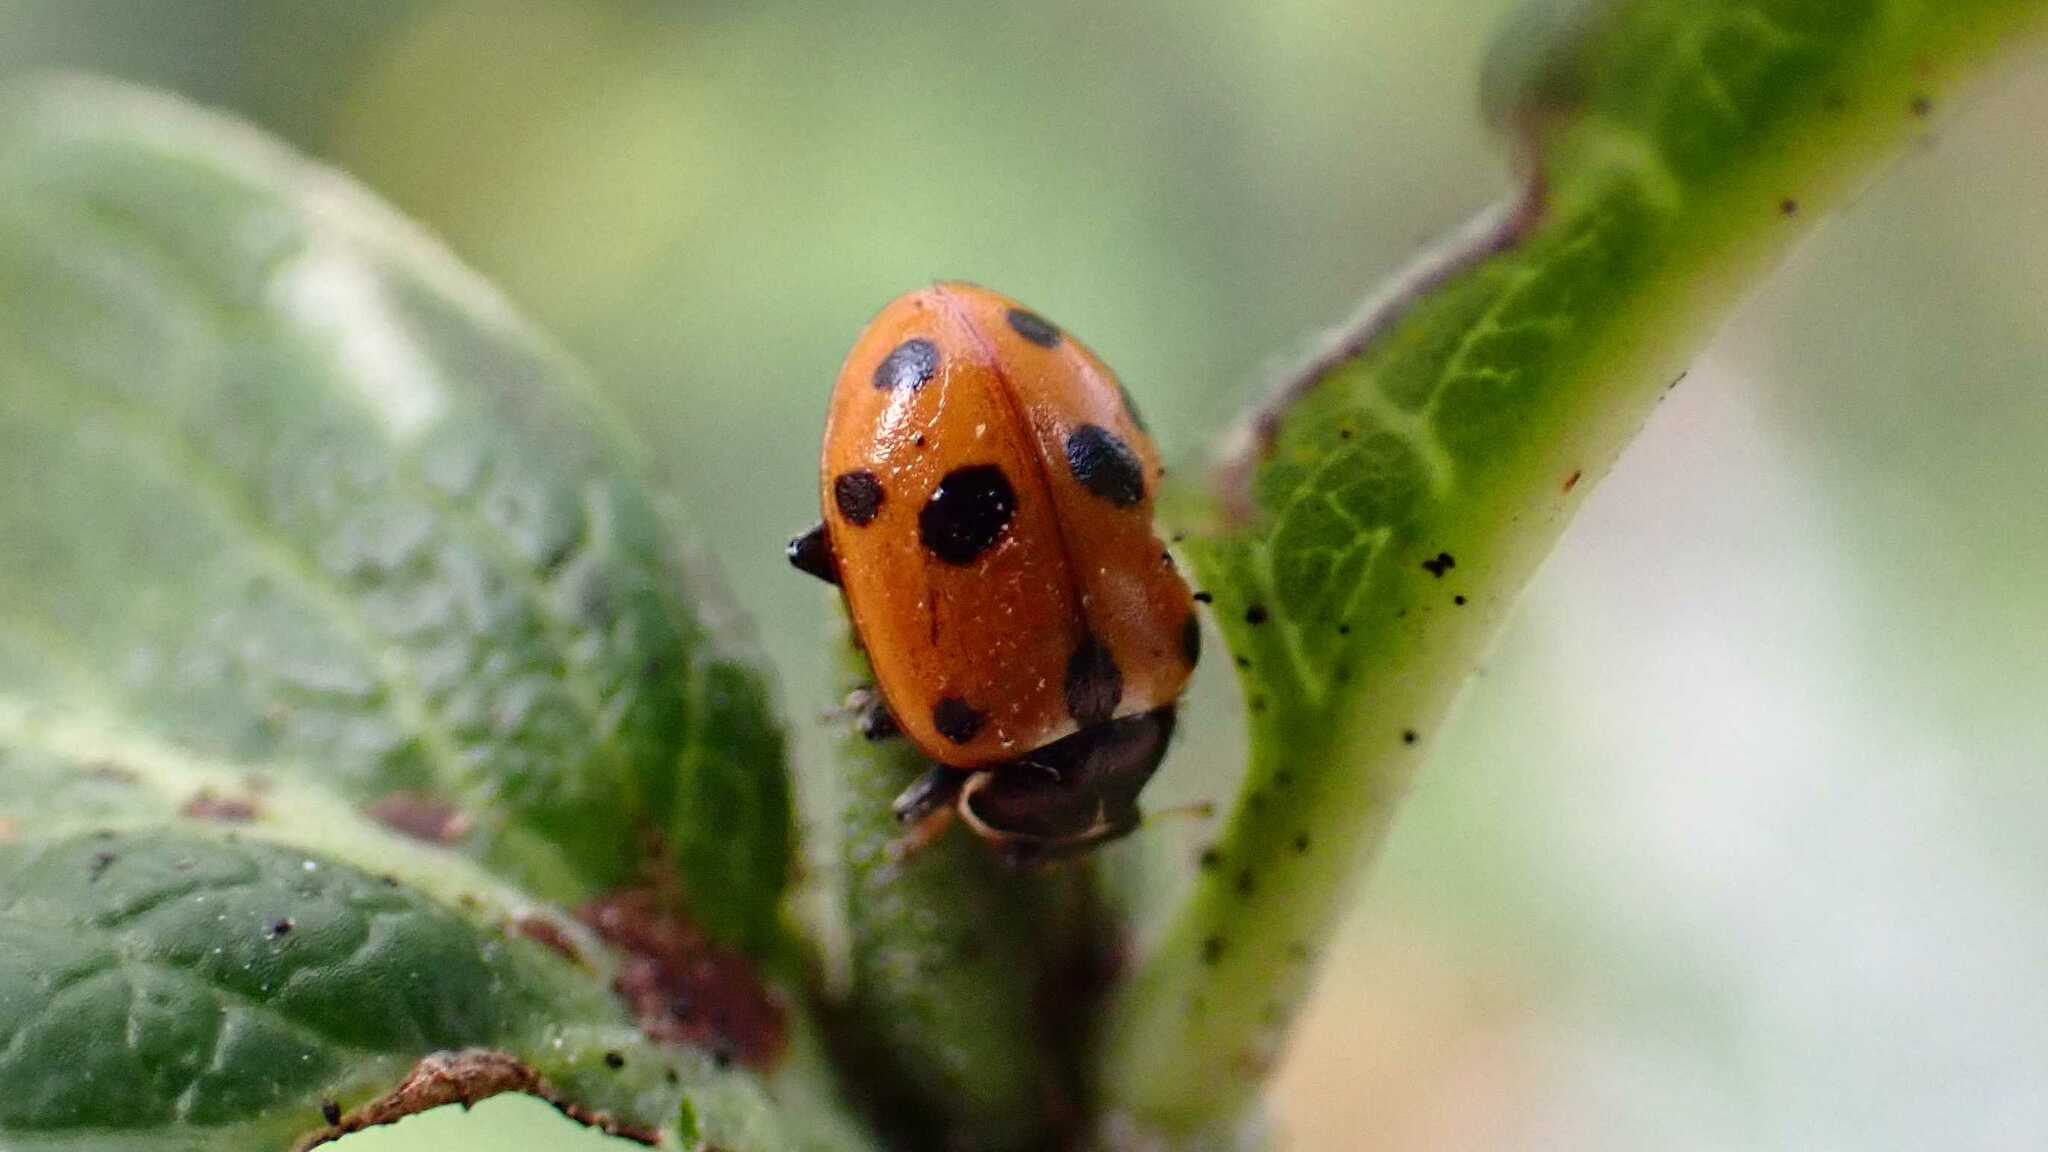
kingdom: Animalia
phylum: Arthropoda
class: Insecta
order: Coleoptera
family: Coccinellidae
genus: Hippodamia
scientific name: Hippodamia variegata
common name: Ladybird beetle
